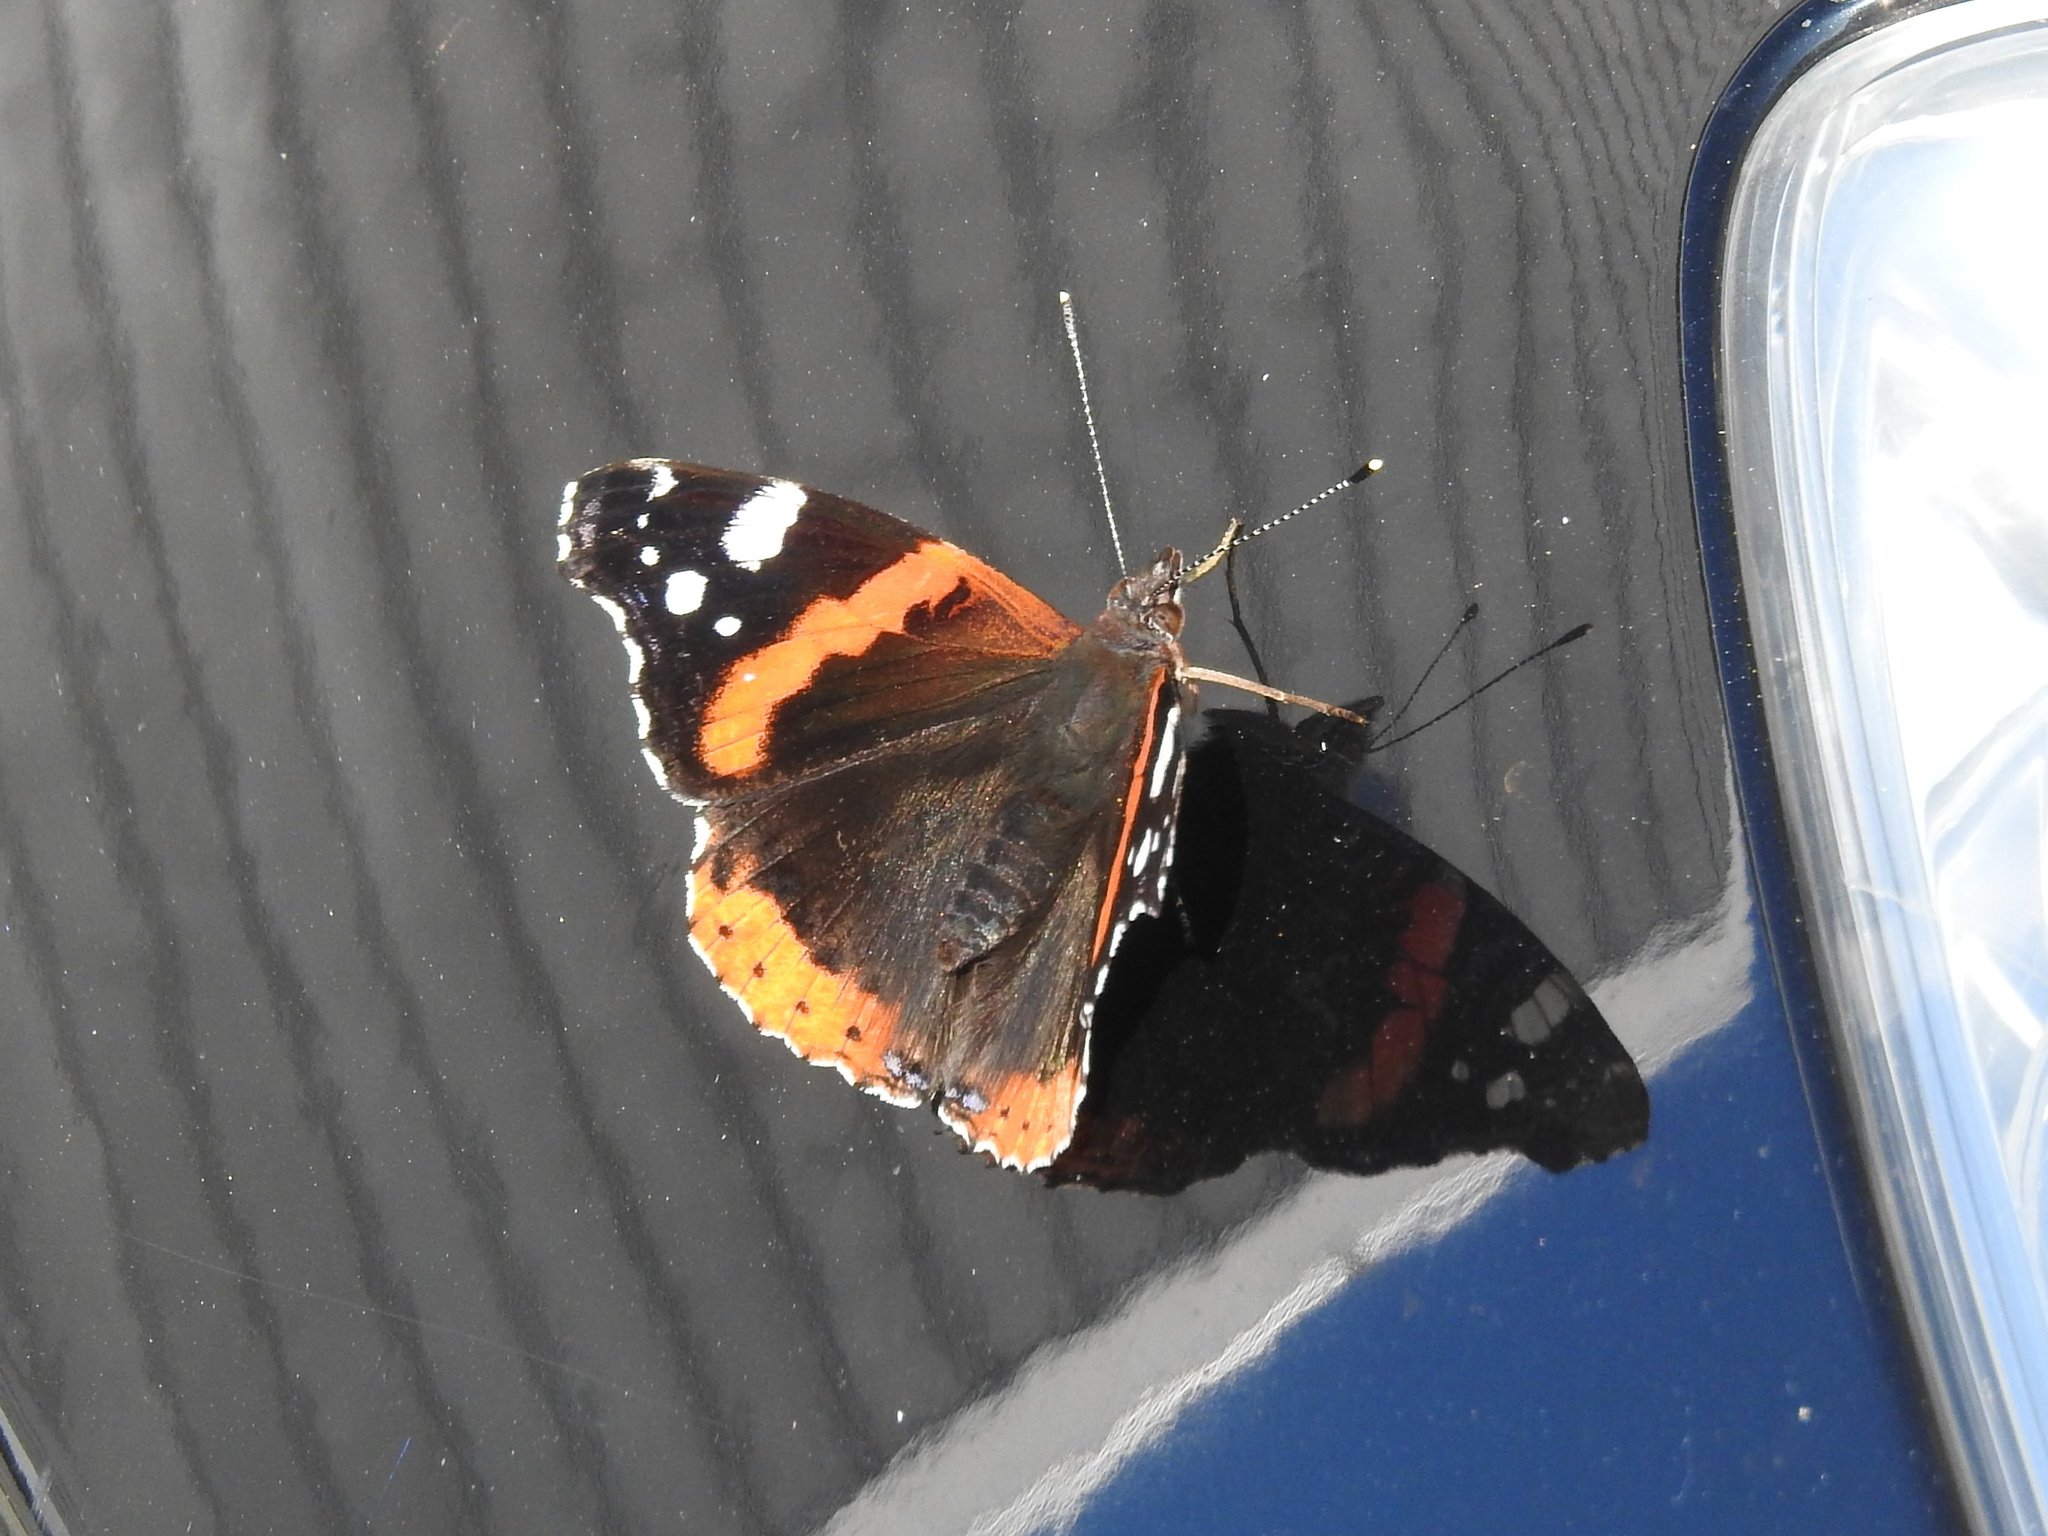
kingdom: Animalia
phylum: Arthropoda
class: Insecta
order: Lepidoptera
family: Nymphalidae
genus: Vanessa
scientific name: Vanessa atalanta
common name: Red admiral
